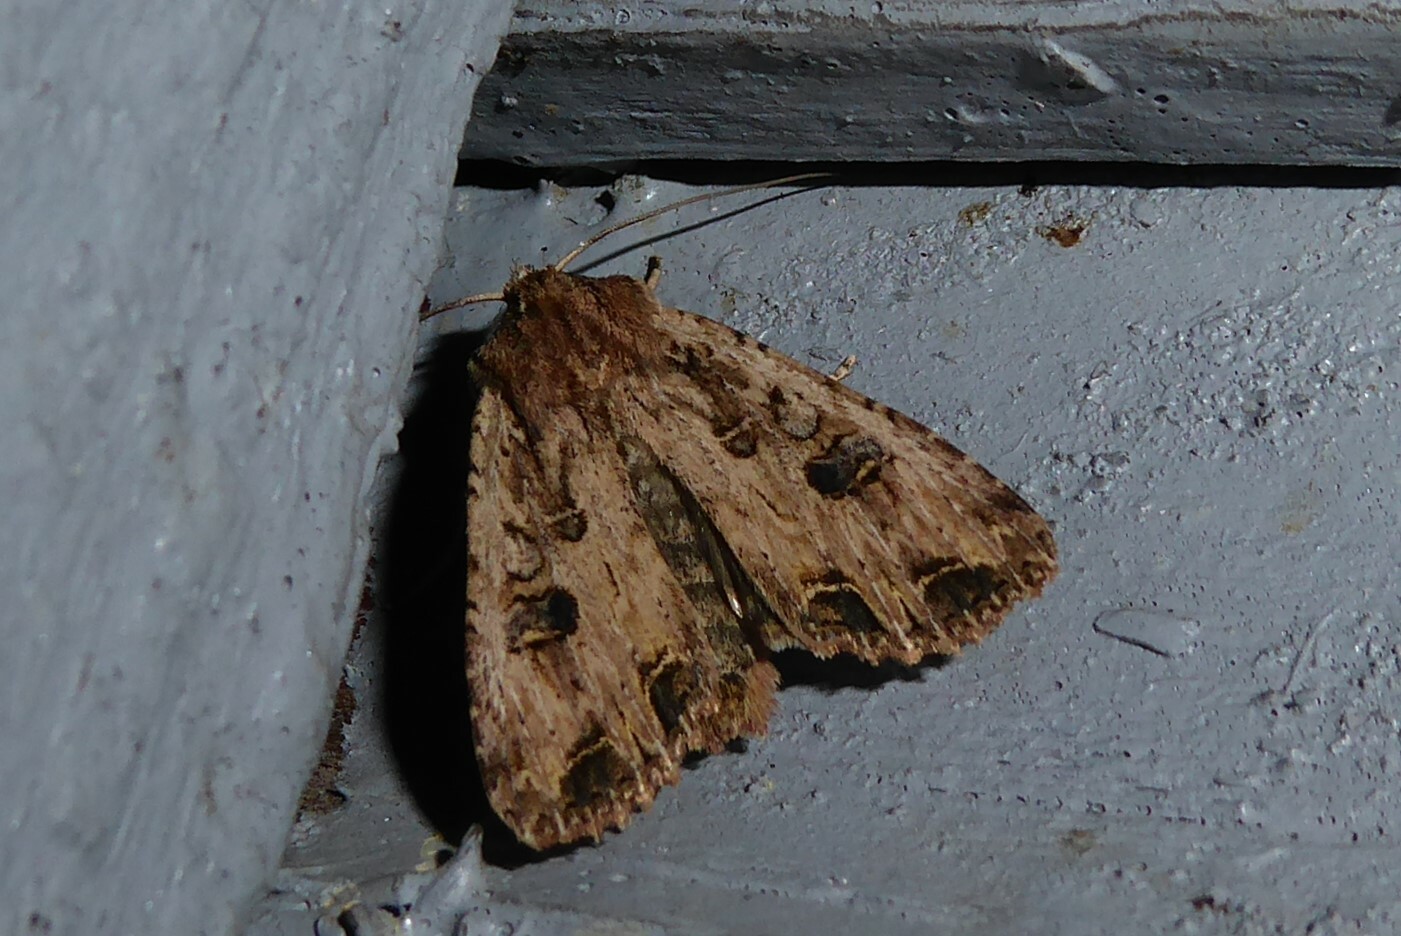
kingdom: Animalia
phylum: Arthropoda
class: Insecta
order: Lepidoptera
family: Noctuidae
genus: Ichneutica
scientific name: Ichneutica lignana
